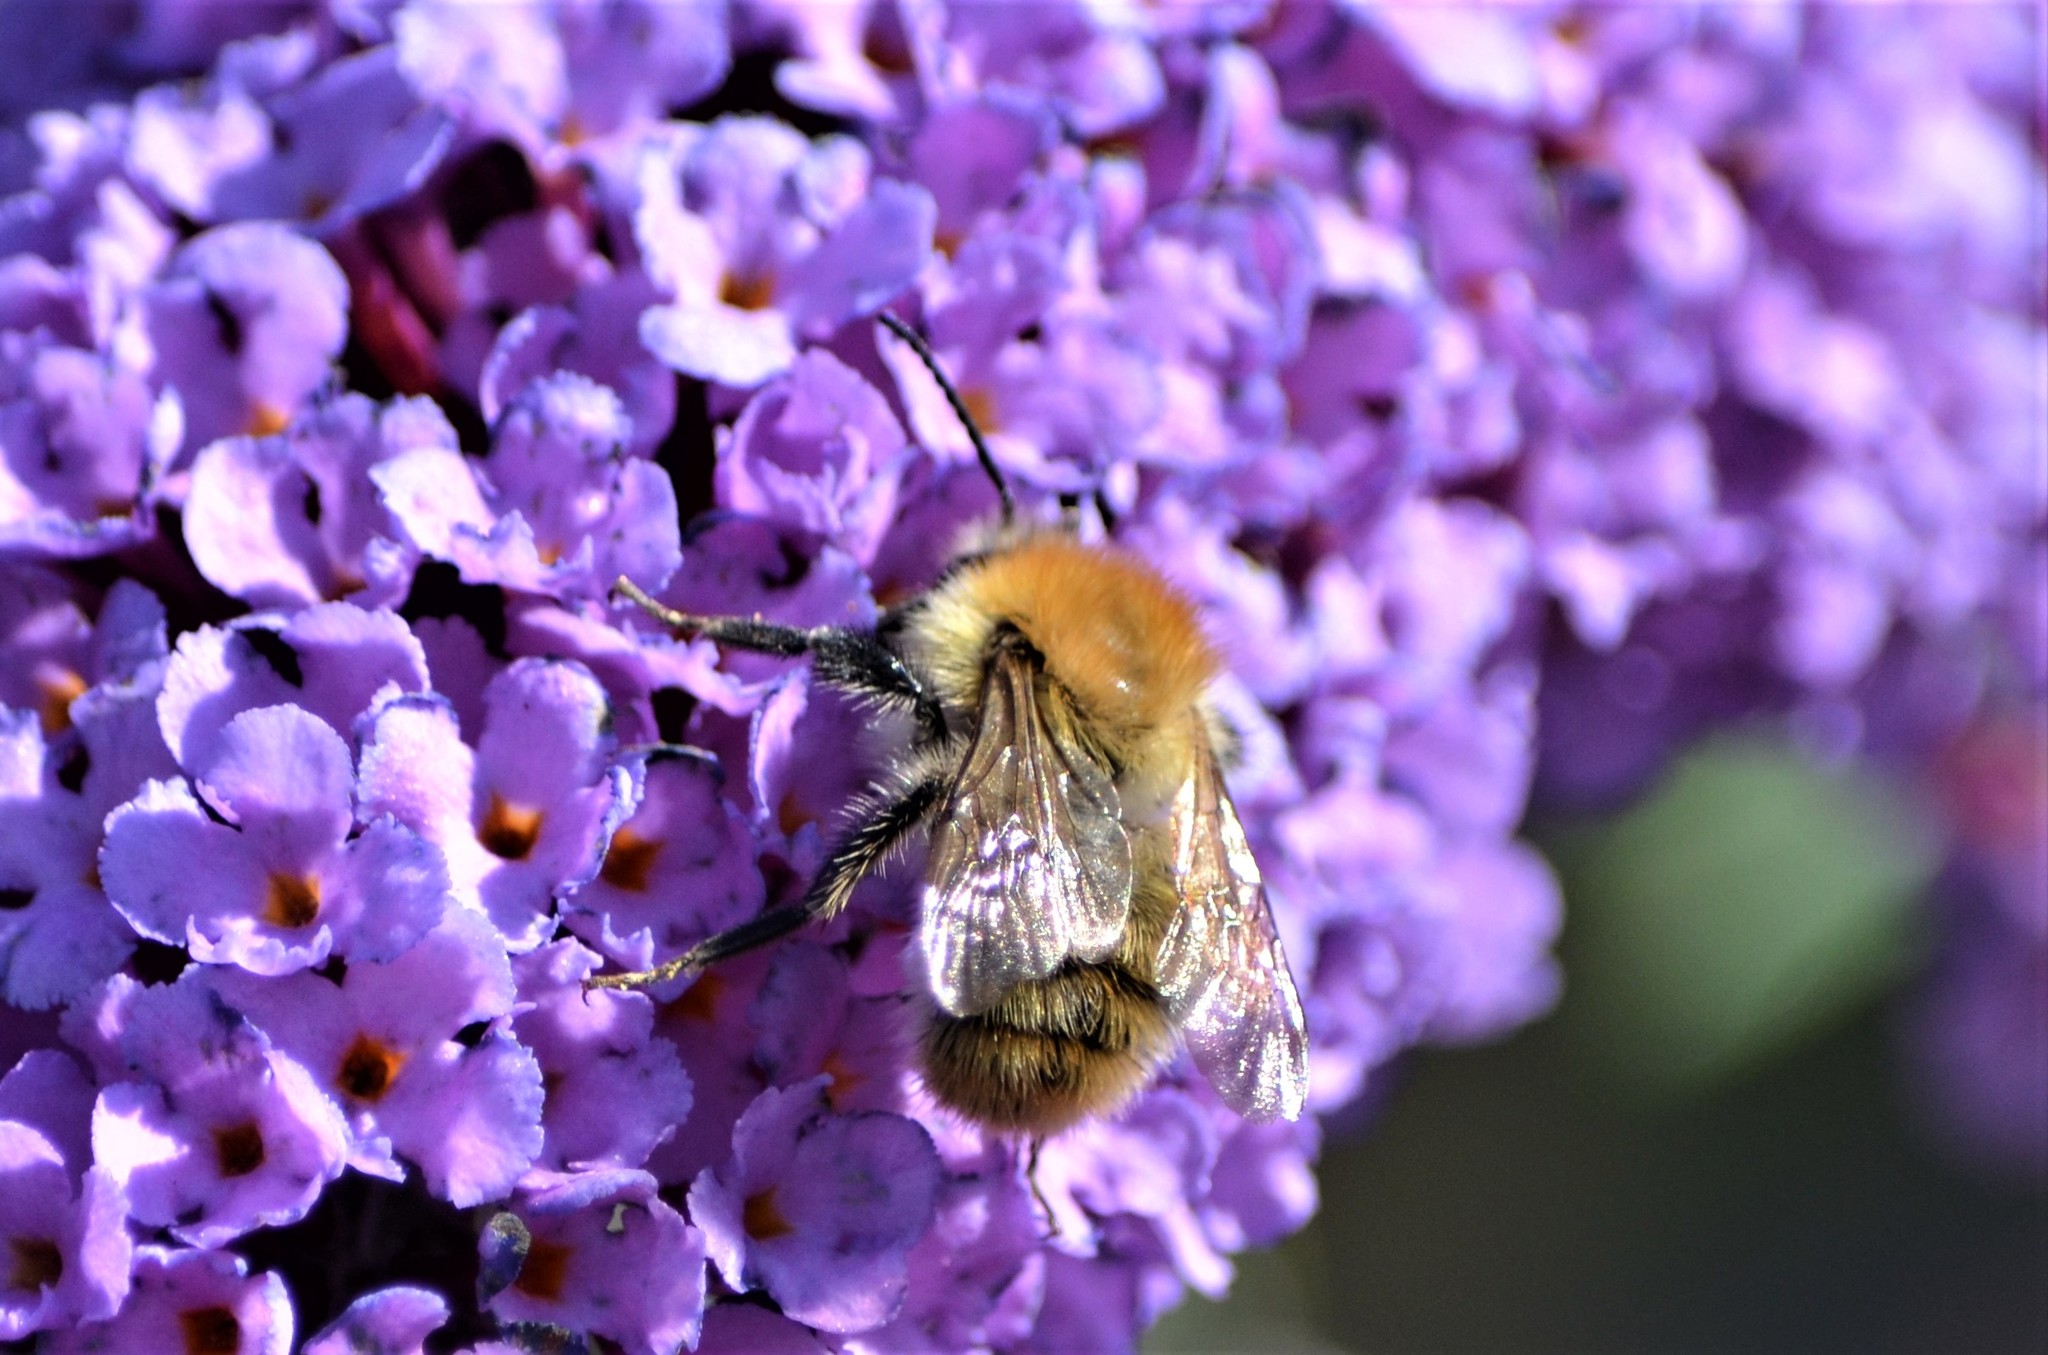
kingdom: Animalia
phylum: Arthropoda
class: Insecta
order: Hymenoptera
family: Apidae
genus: Bombus
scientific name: Bombus pascuorum
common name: Common carder bee
